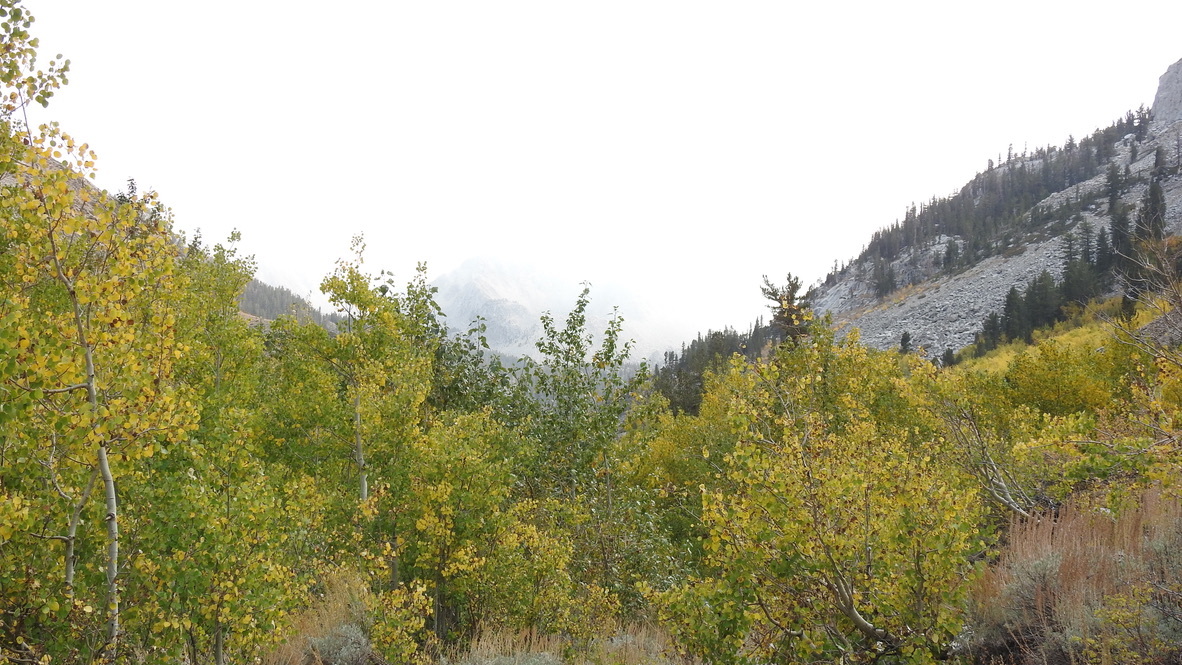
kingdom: Plantae
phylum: Tracheophyta
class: Magnoliopsida
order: Malpighiales
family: Salicaceae
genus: Populus
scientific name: Populus tremuloides
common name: Quaking aspen
